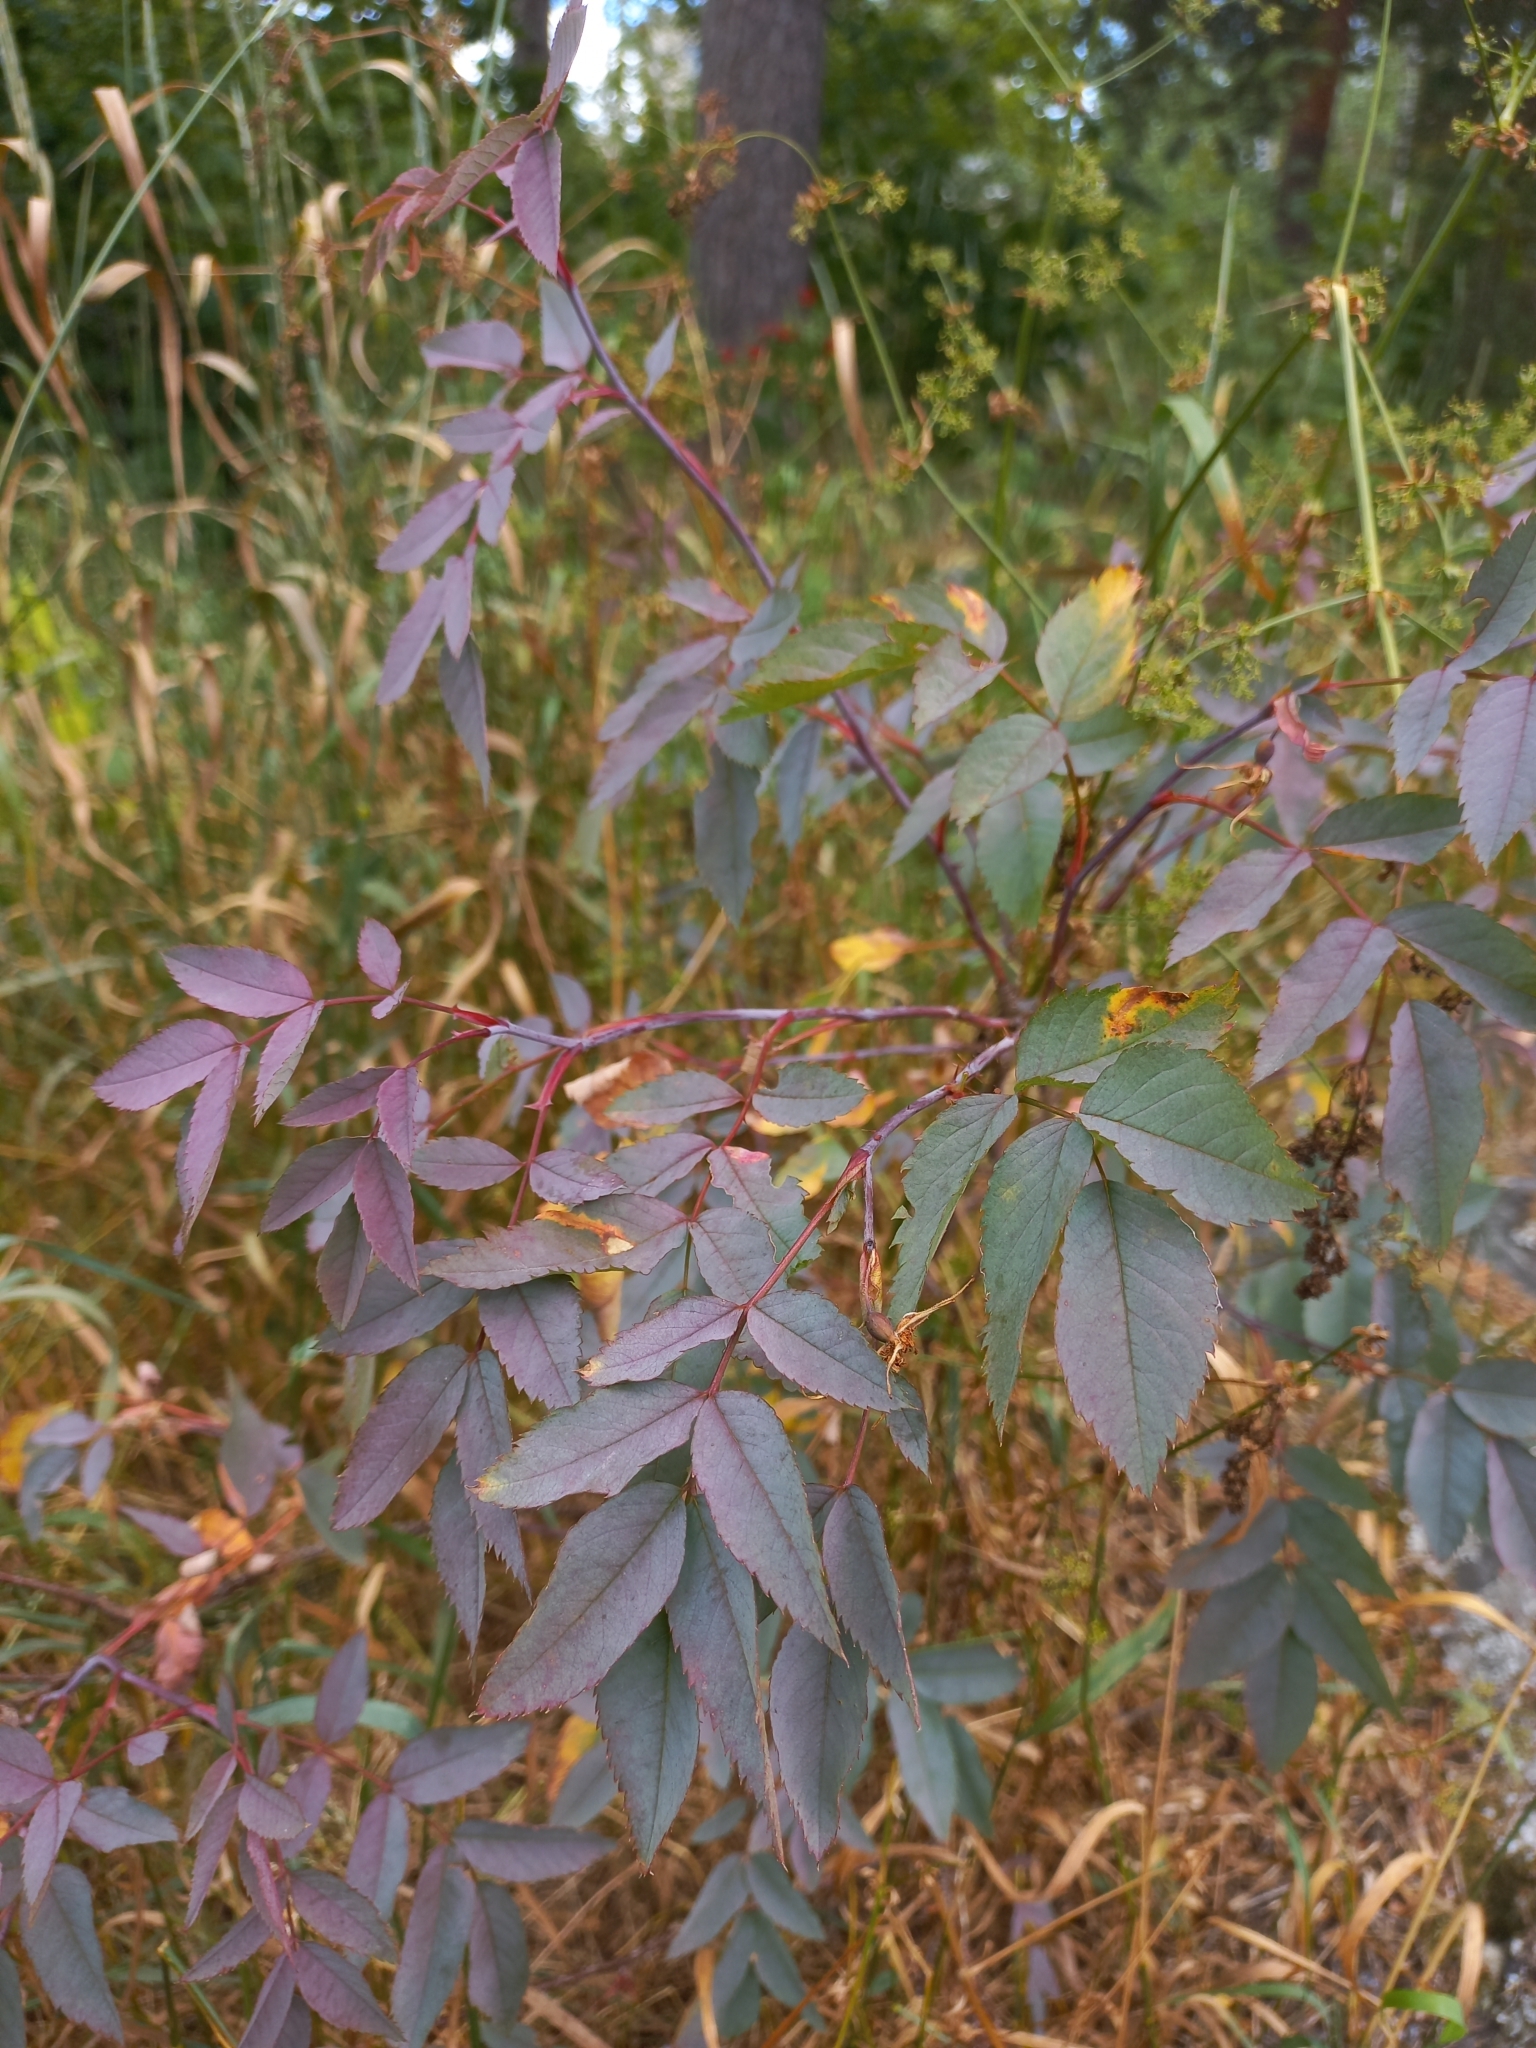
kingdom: Plantae
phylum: Tracheophyta
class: Magnoliopsida
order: Rosales
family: Rosaceae
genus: Rosa
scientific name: Rosa glauca
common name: Redleaf rose
